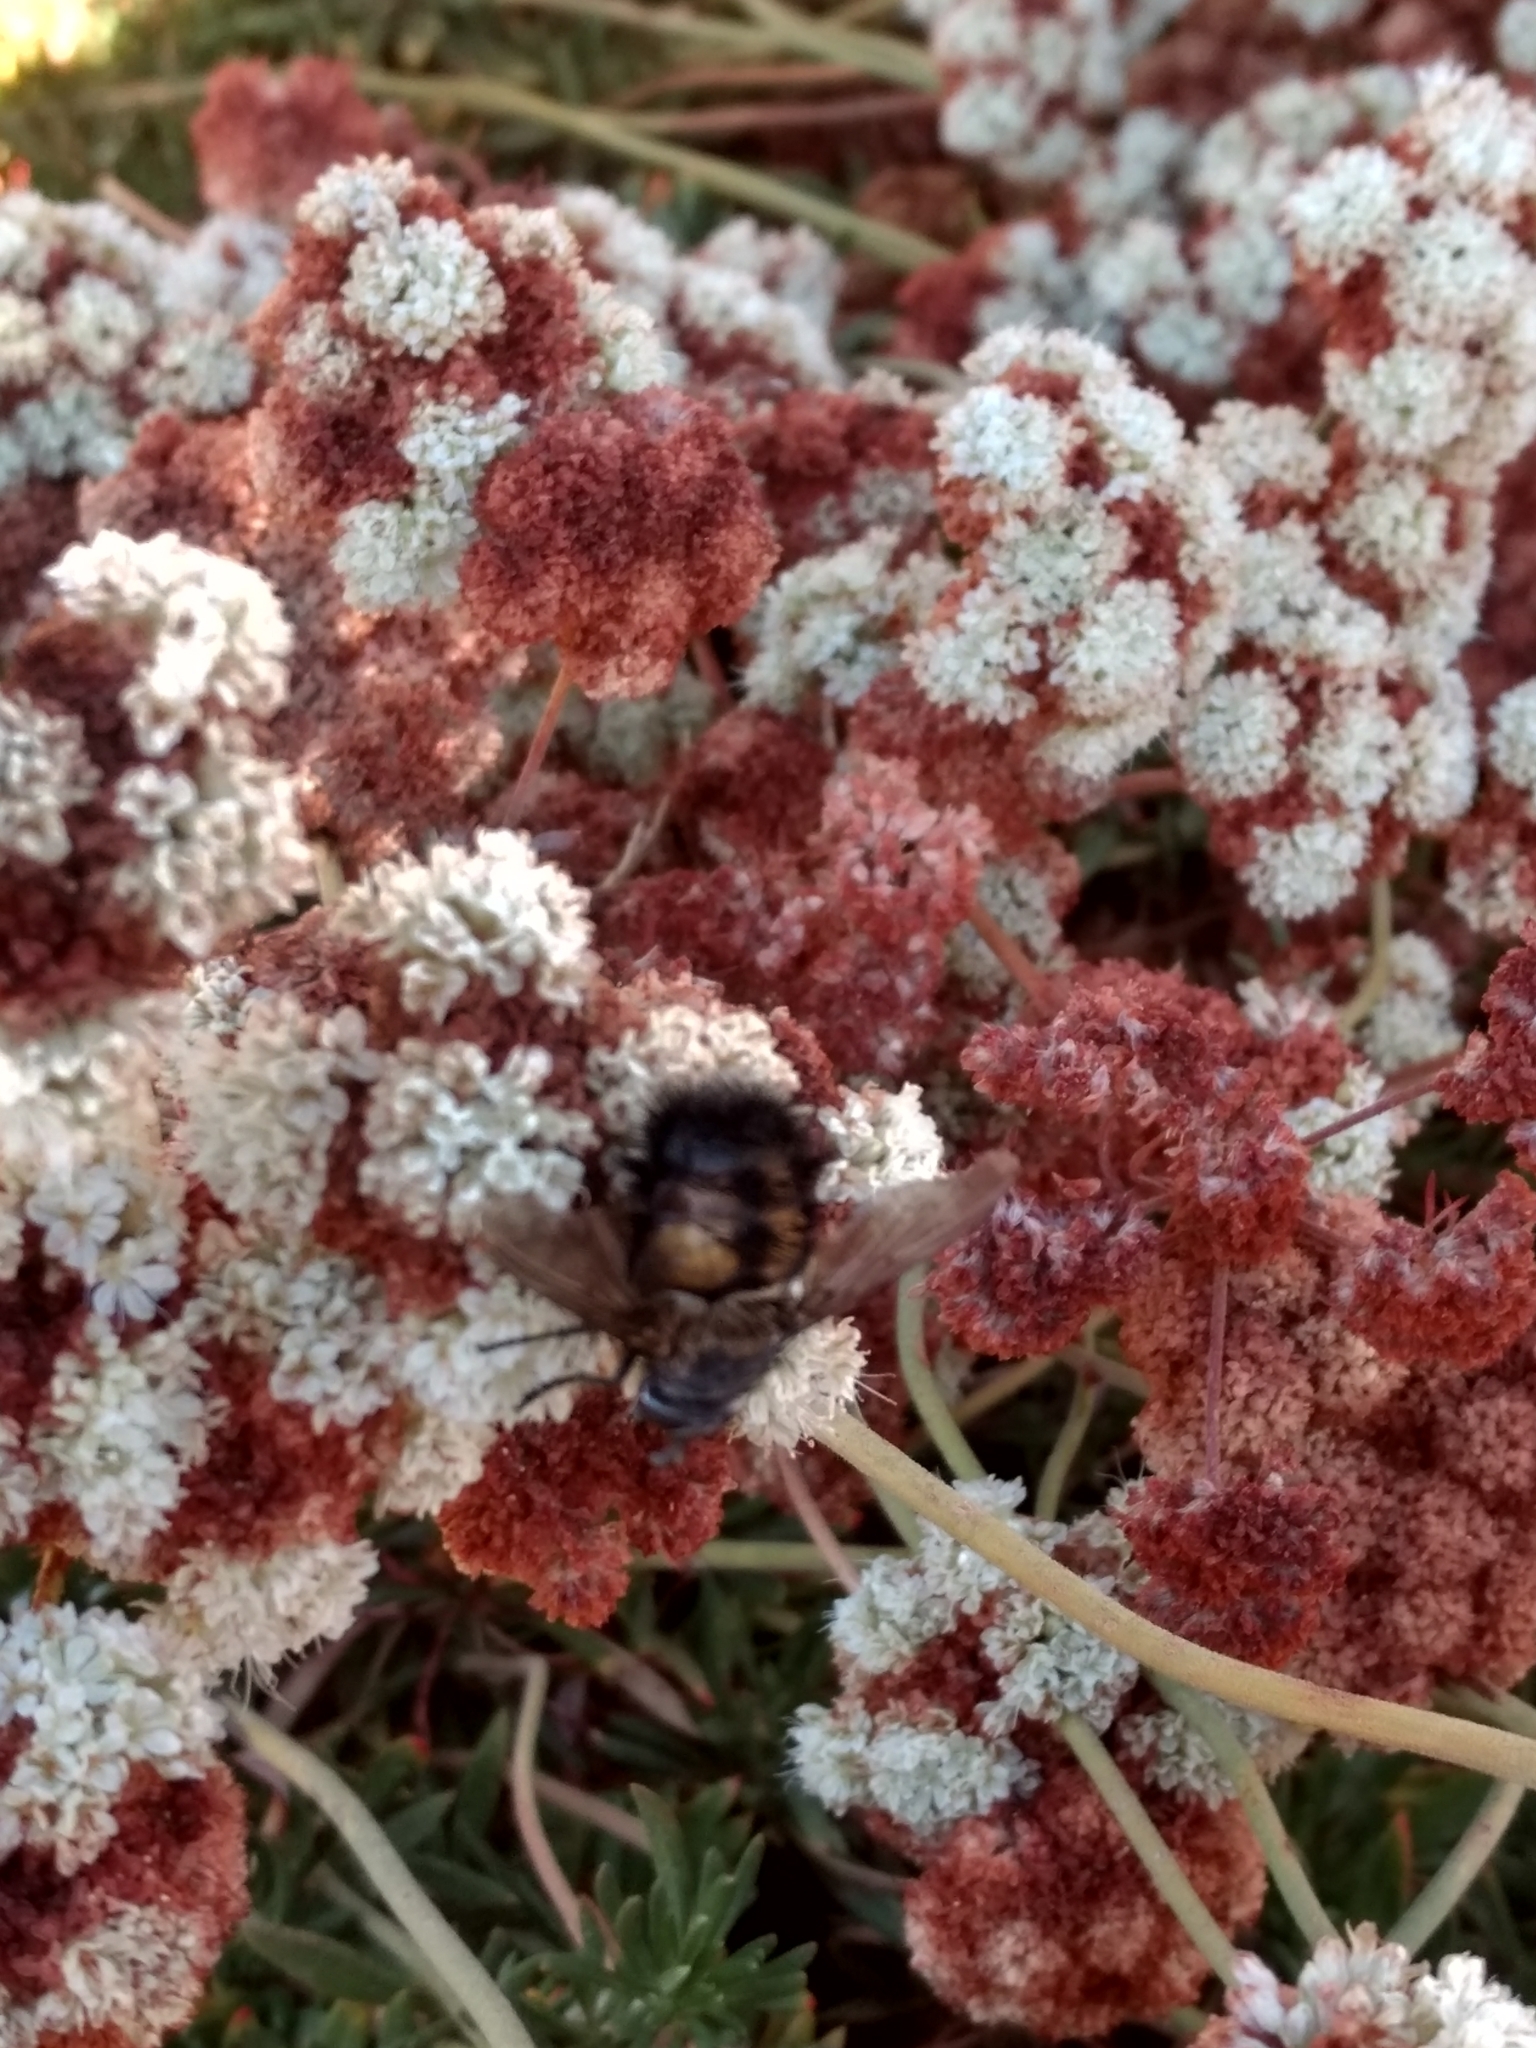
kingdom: Animalia
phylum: Arthropoda
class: Insecta
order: Diptera
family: Tachinidae
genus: Paradejeania
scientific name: Paradejeania rutilioides
